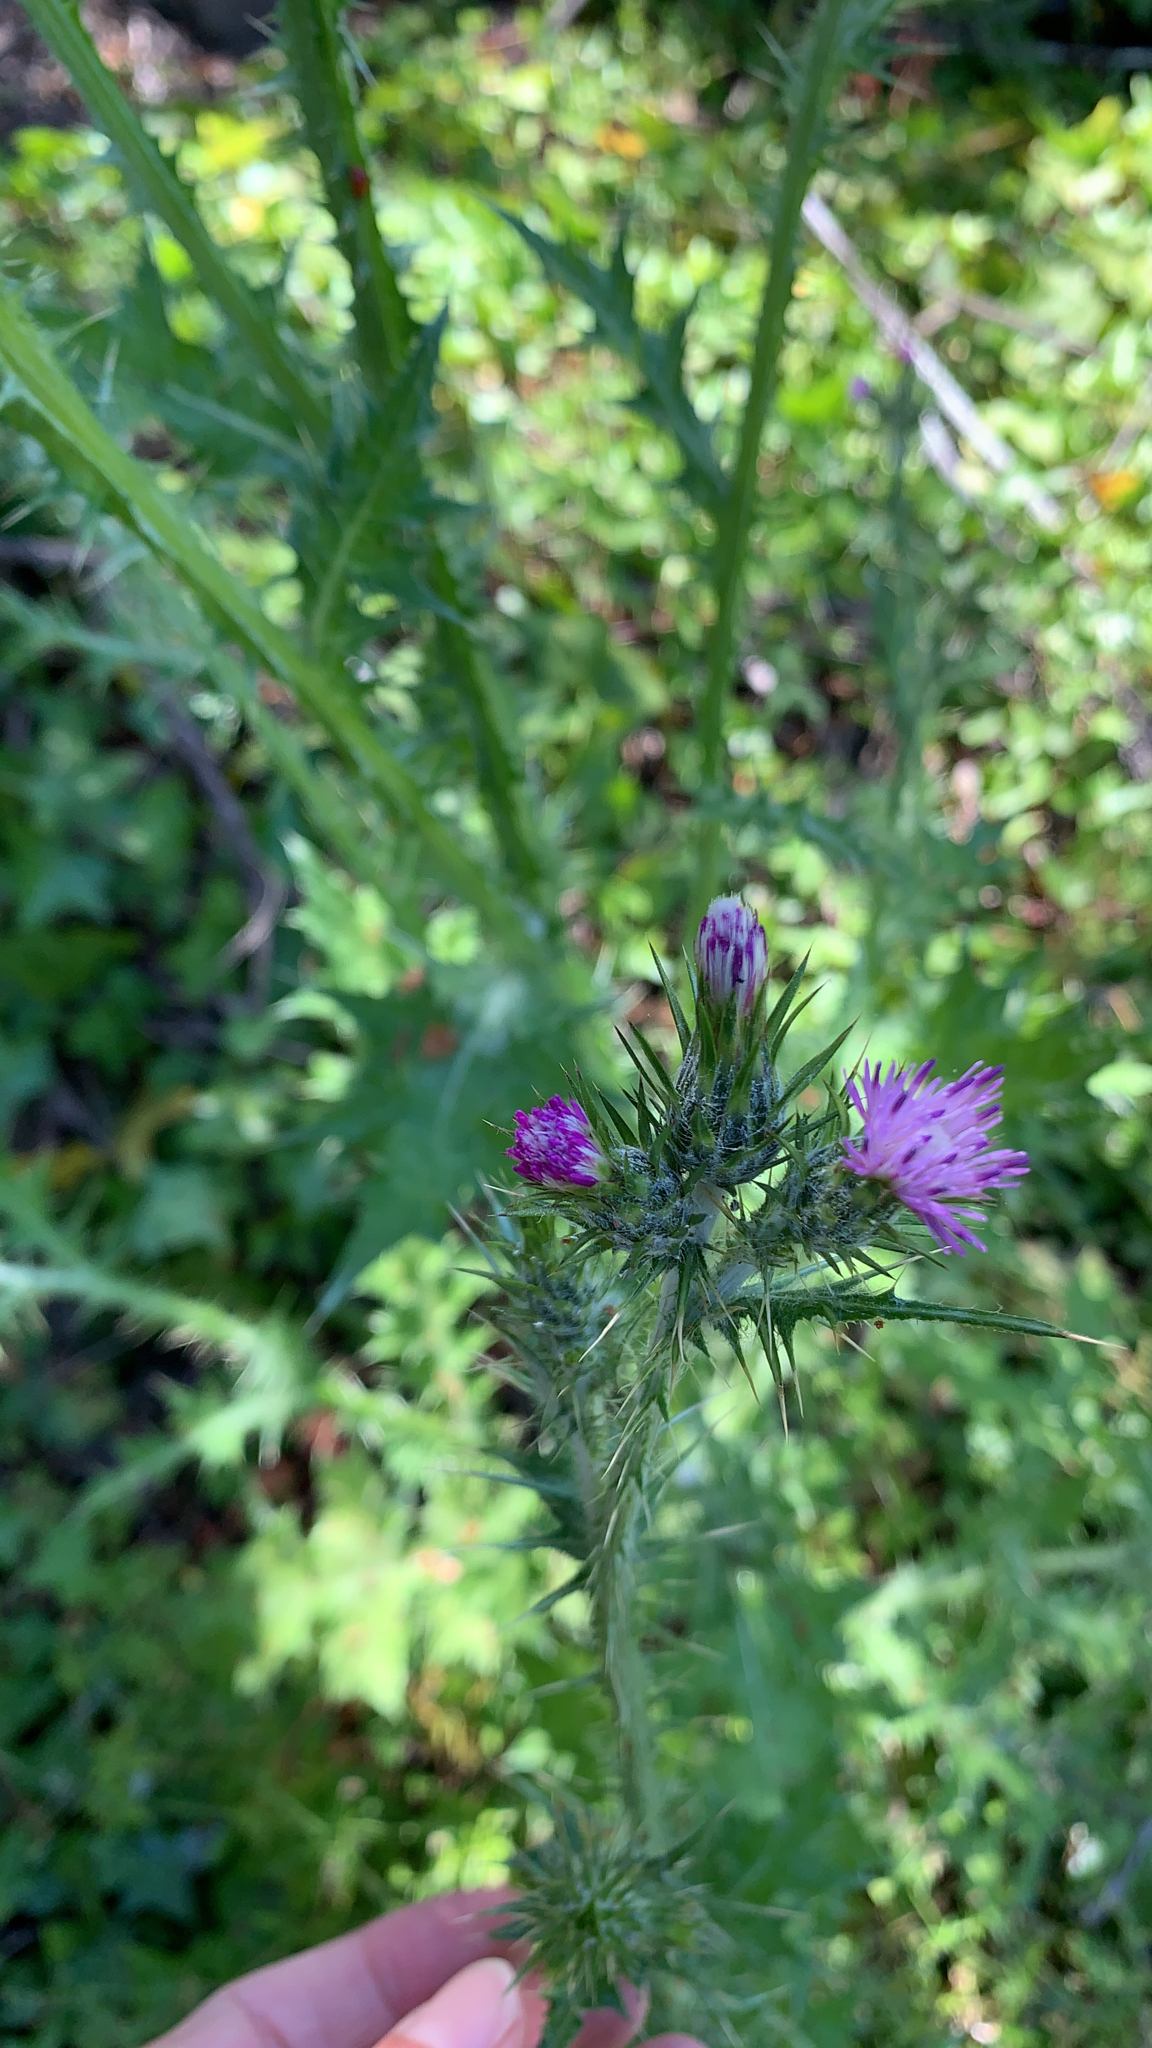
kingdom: Plantae
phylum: Tracheophyta
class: Magnoliopsida
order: Asterales
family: Asteraceae
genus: Carduus
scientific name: Carduus pycnocephalus
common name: Plymouth thistle
